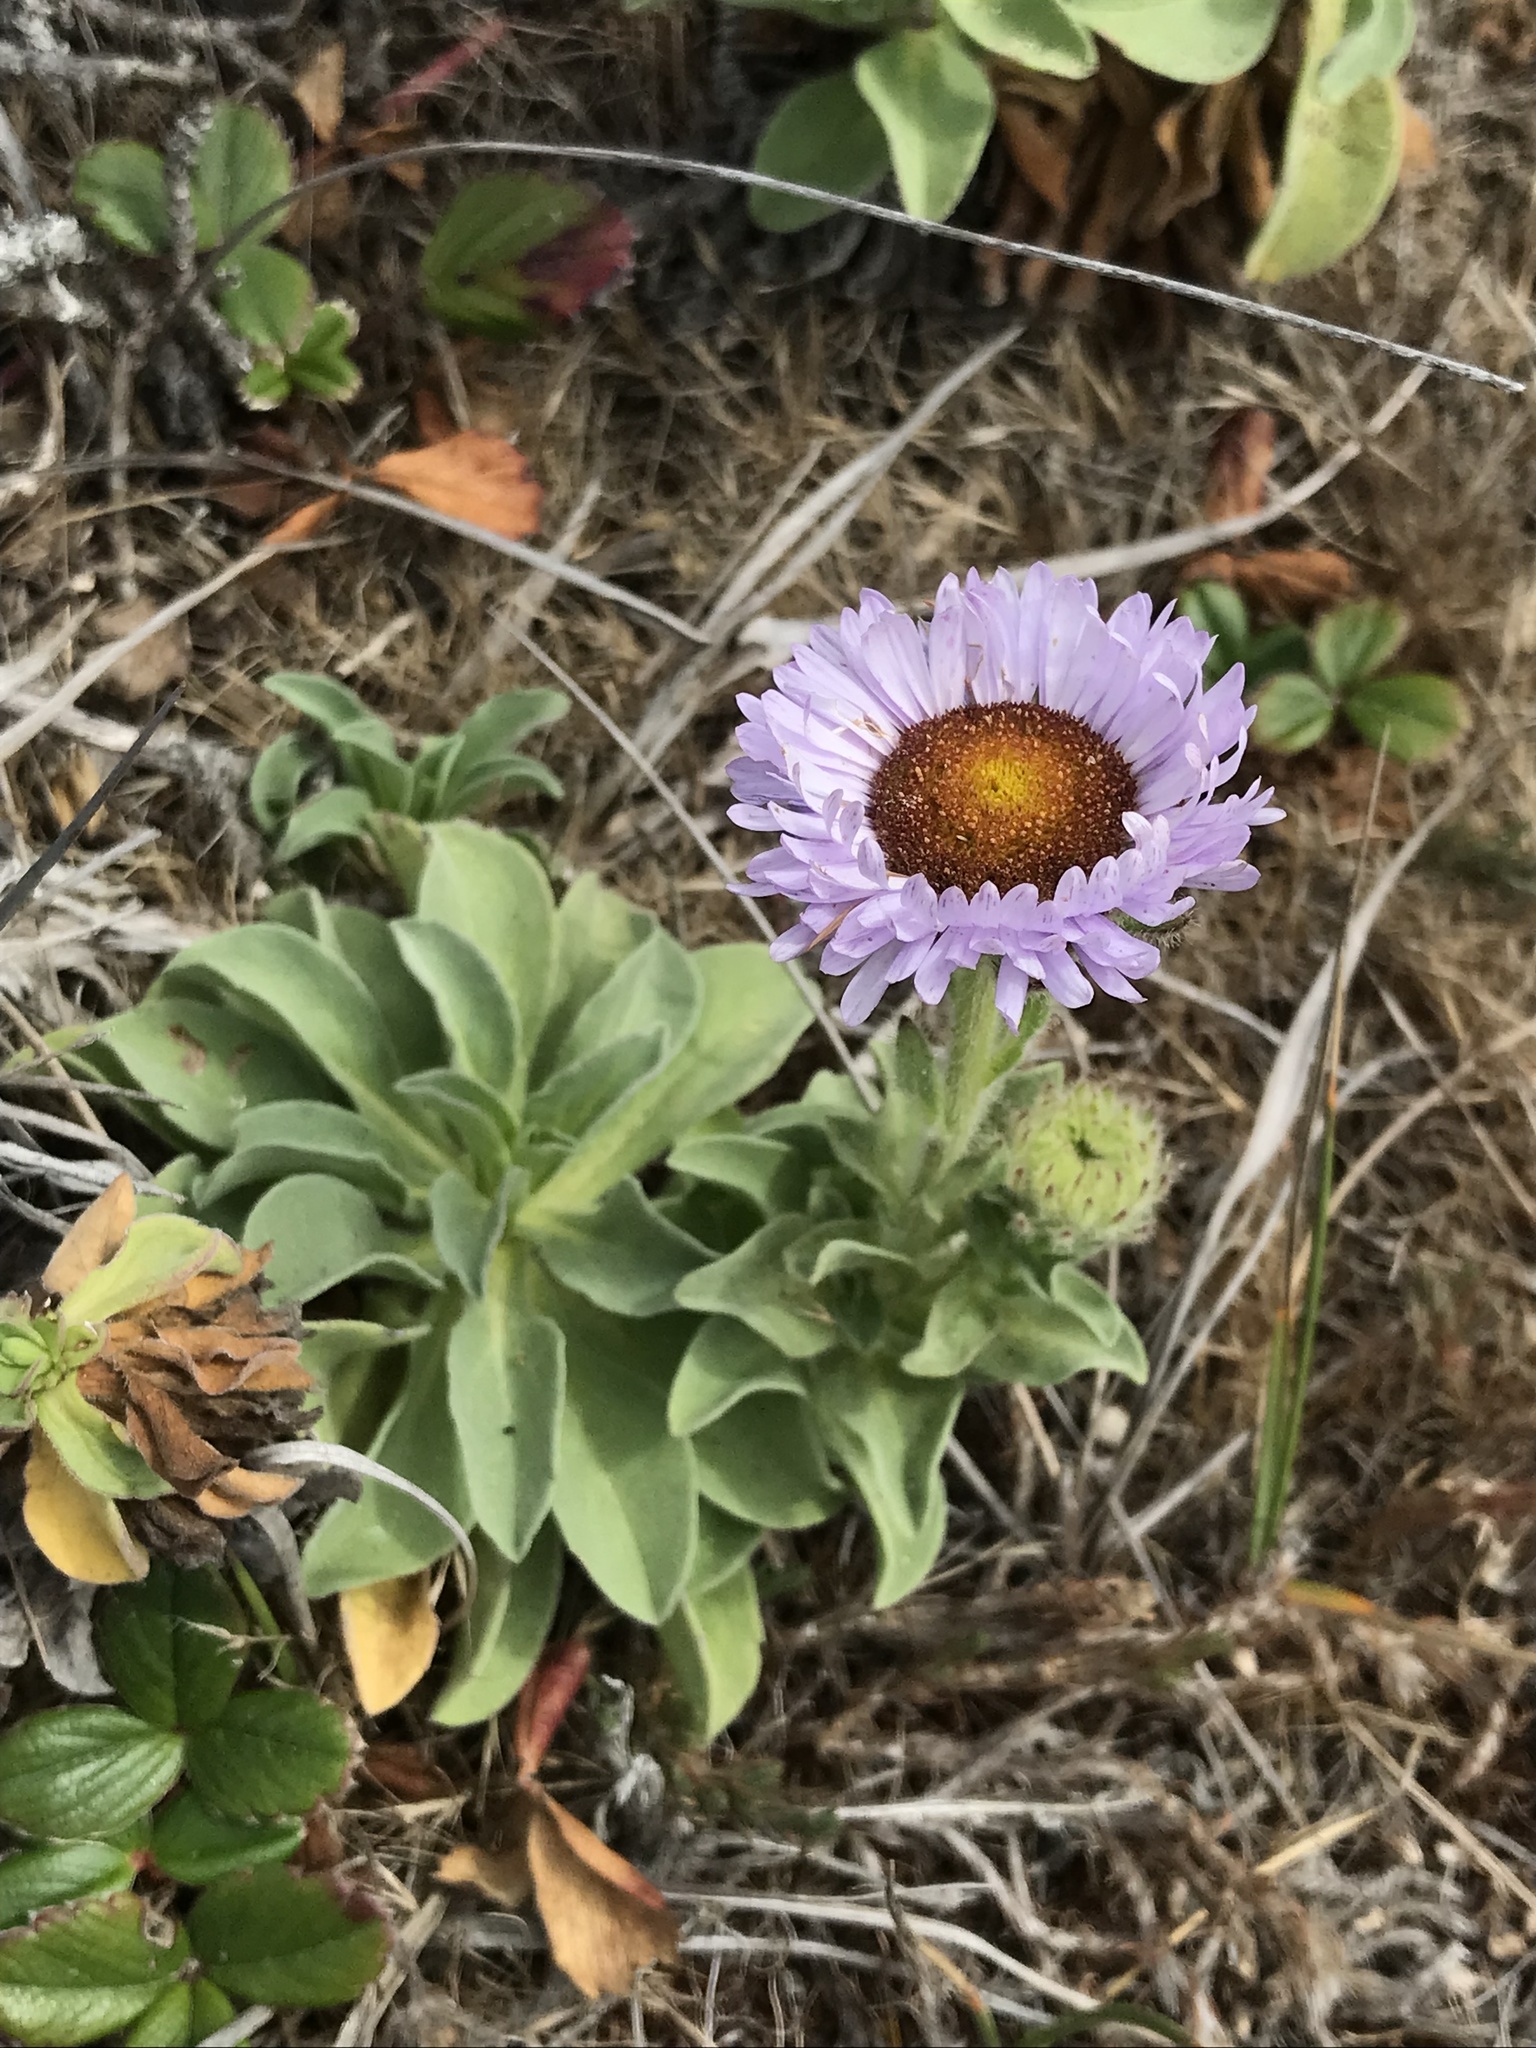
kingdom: Plantae
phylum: Tracheophyta
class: Magnoliopsida
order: Asterales
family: Asteraceae
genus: Erigeron
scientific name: Erigeron glaucus
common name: Seaside daisy
